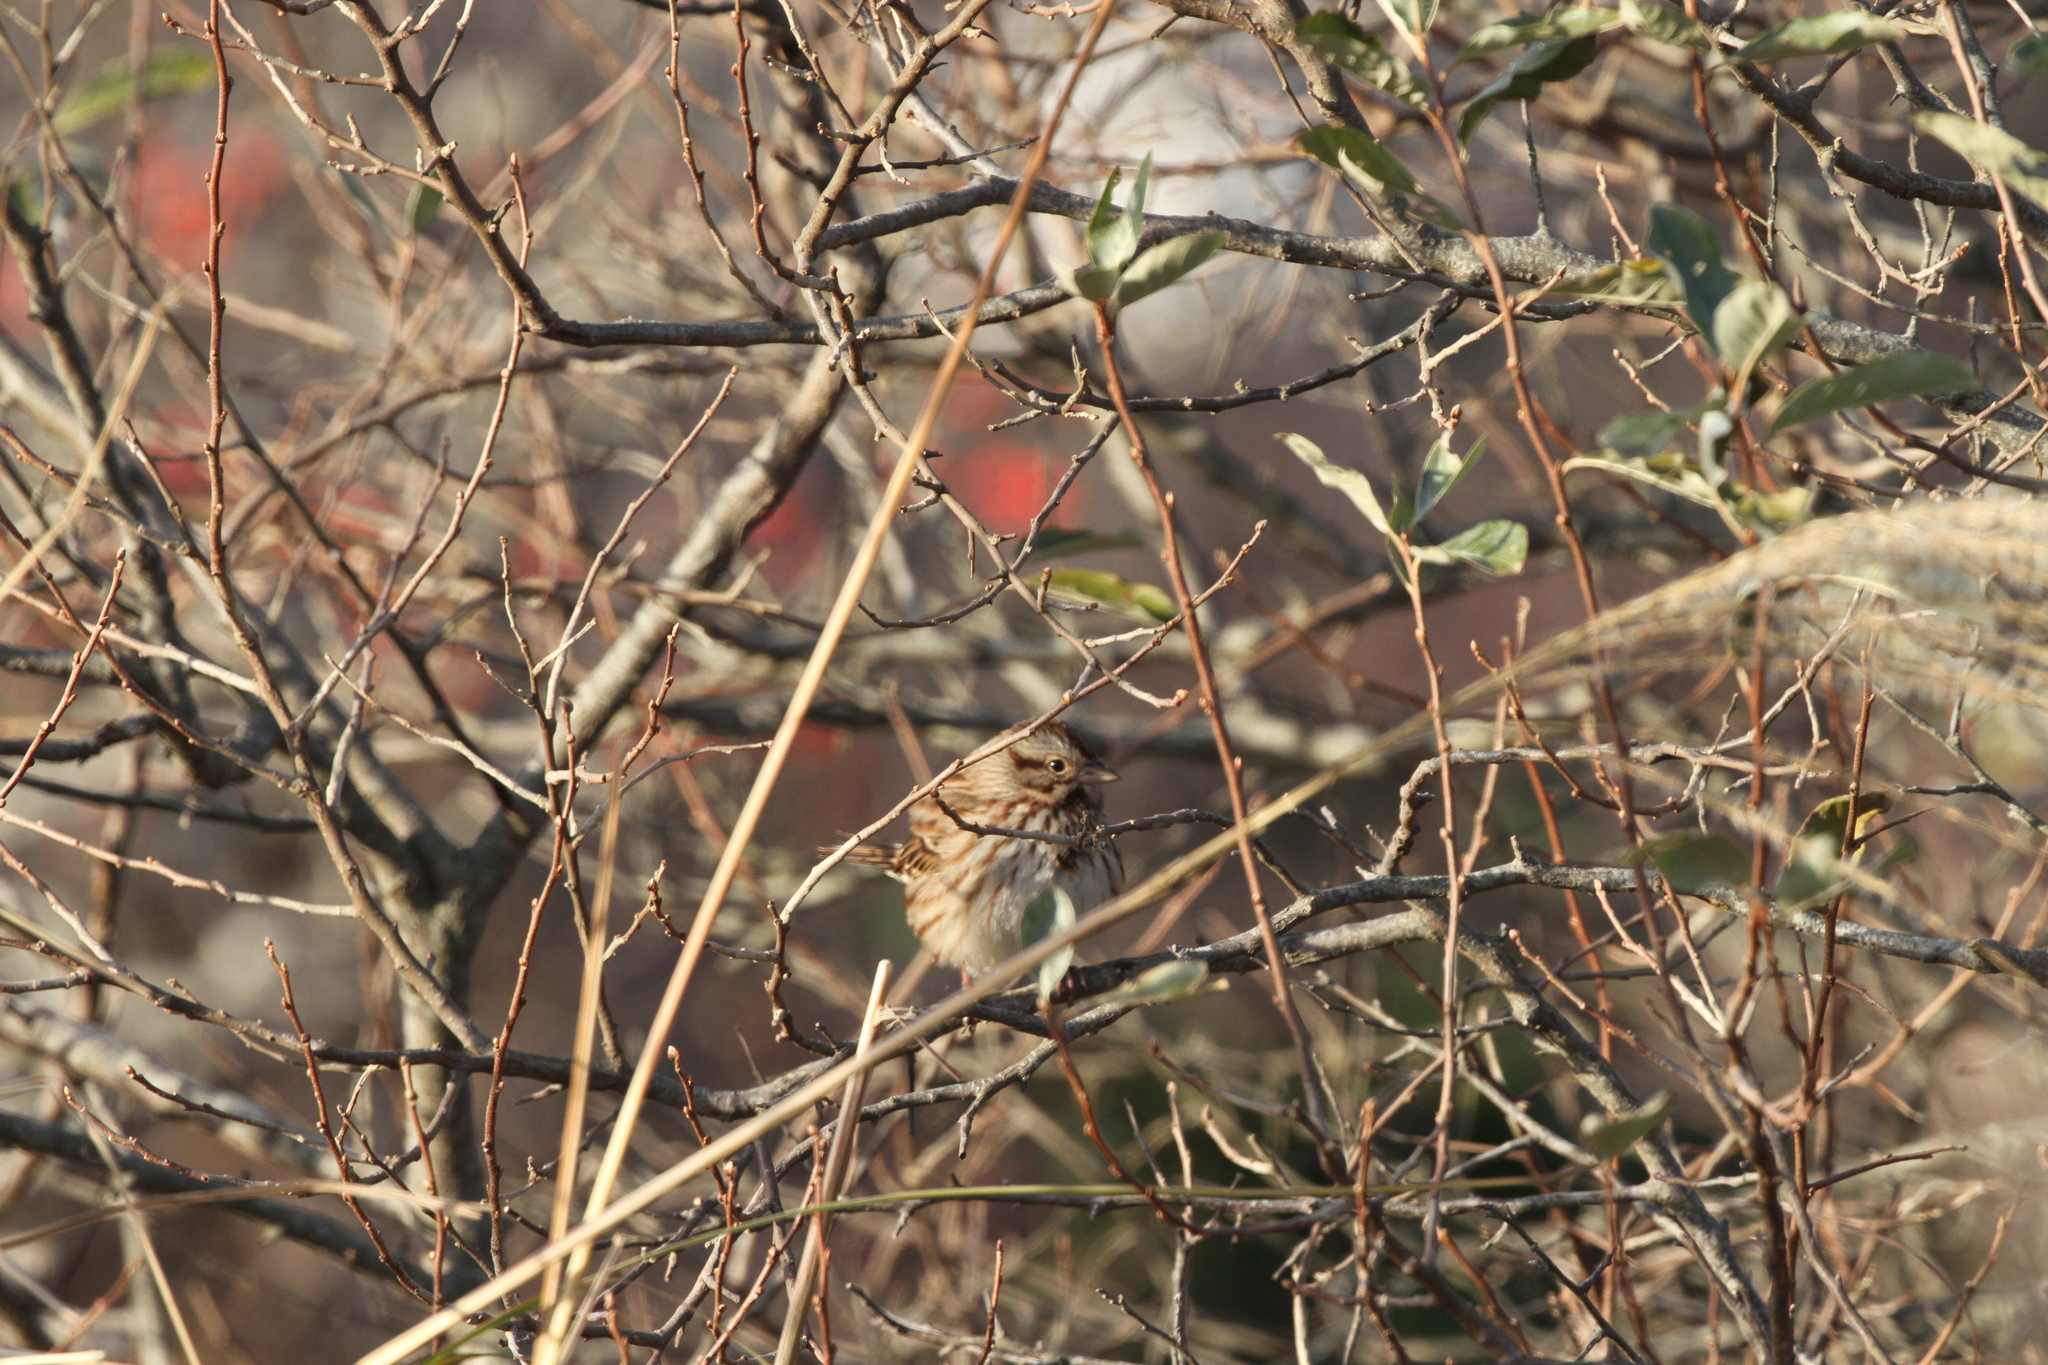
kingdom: Animalia
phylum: Chordata
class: Aves
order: Passeriformes
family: Passerellidae
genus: Melospiza
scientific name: Melospiza melodia
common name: Song sparrow
